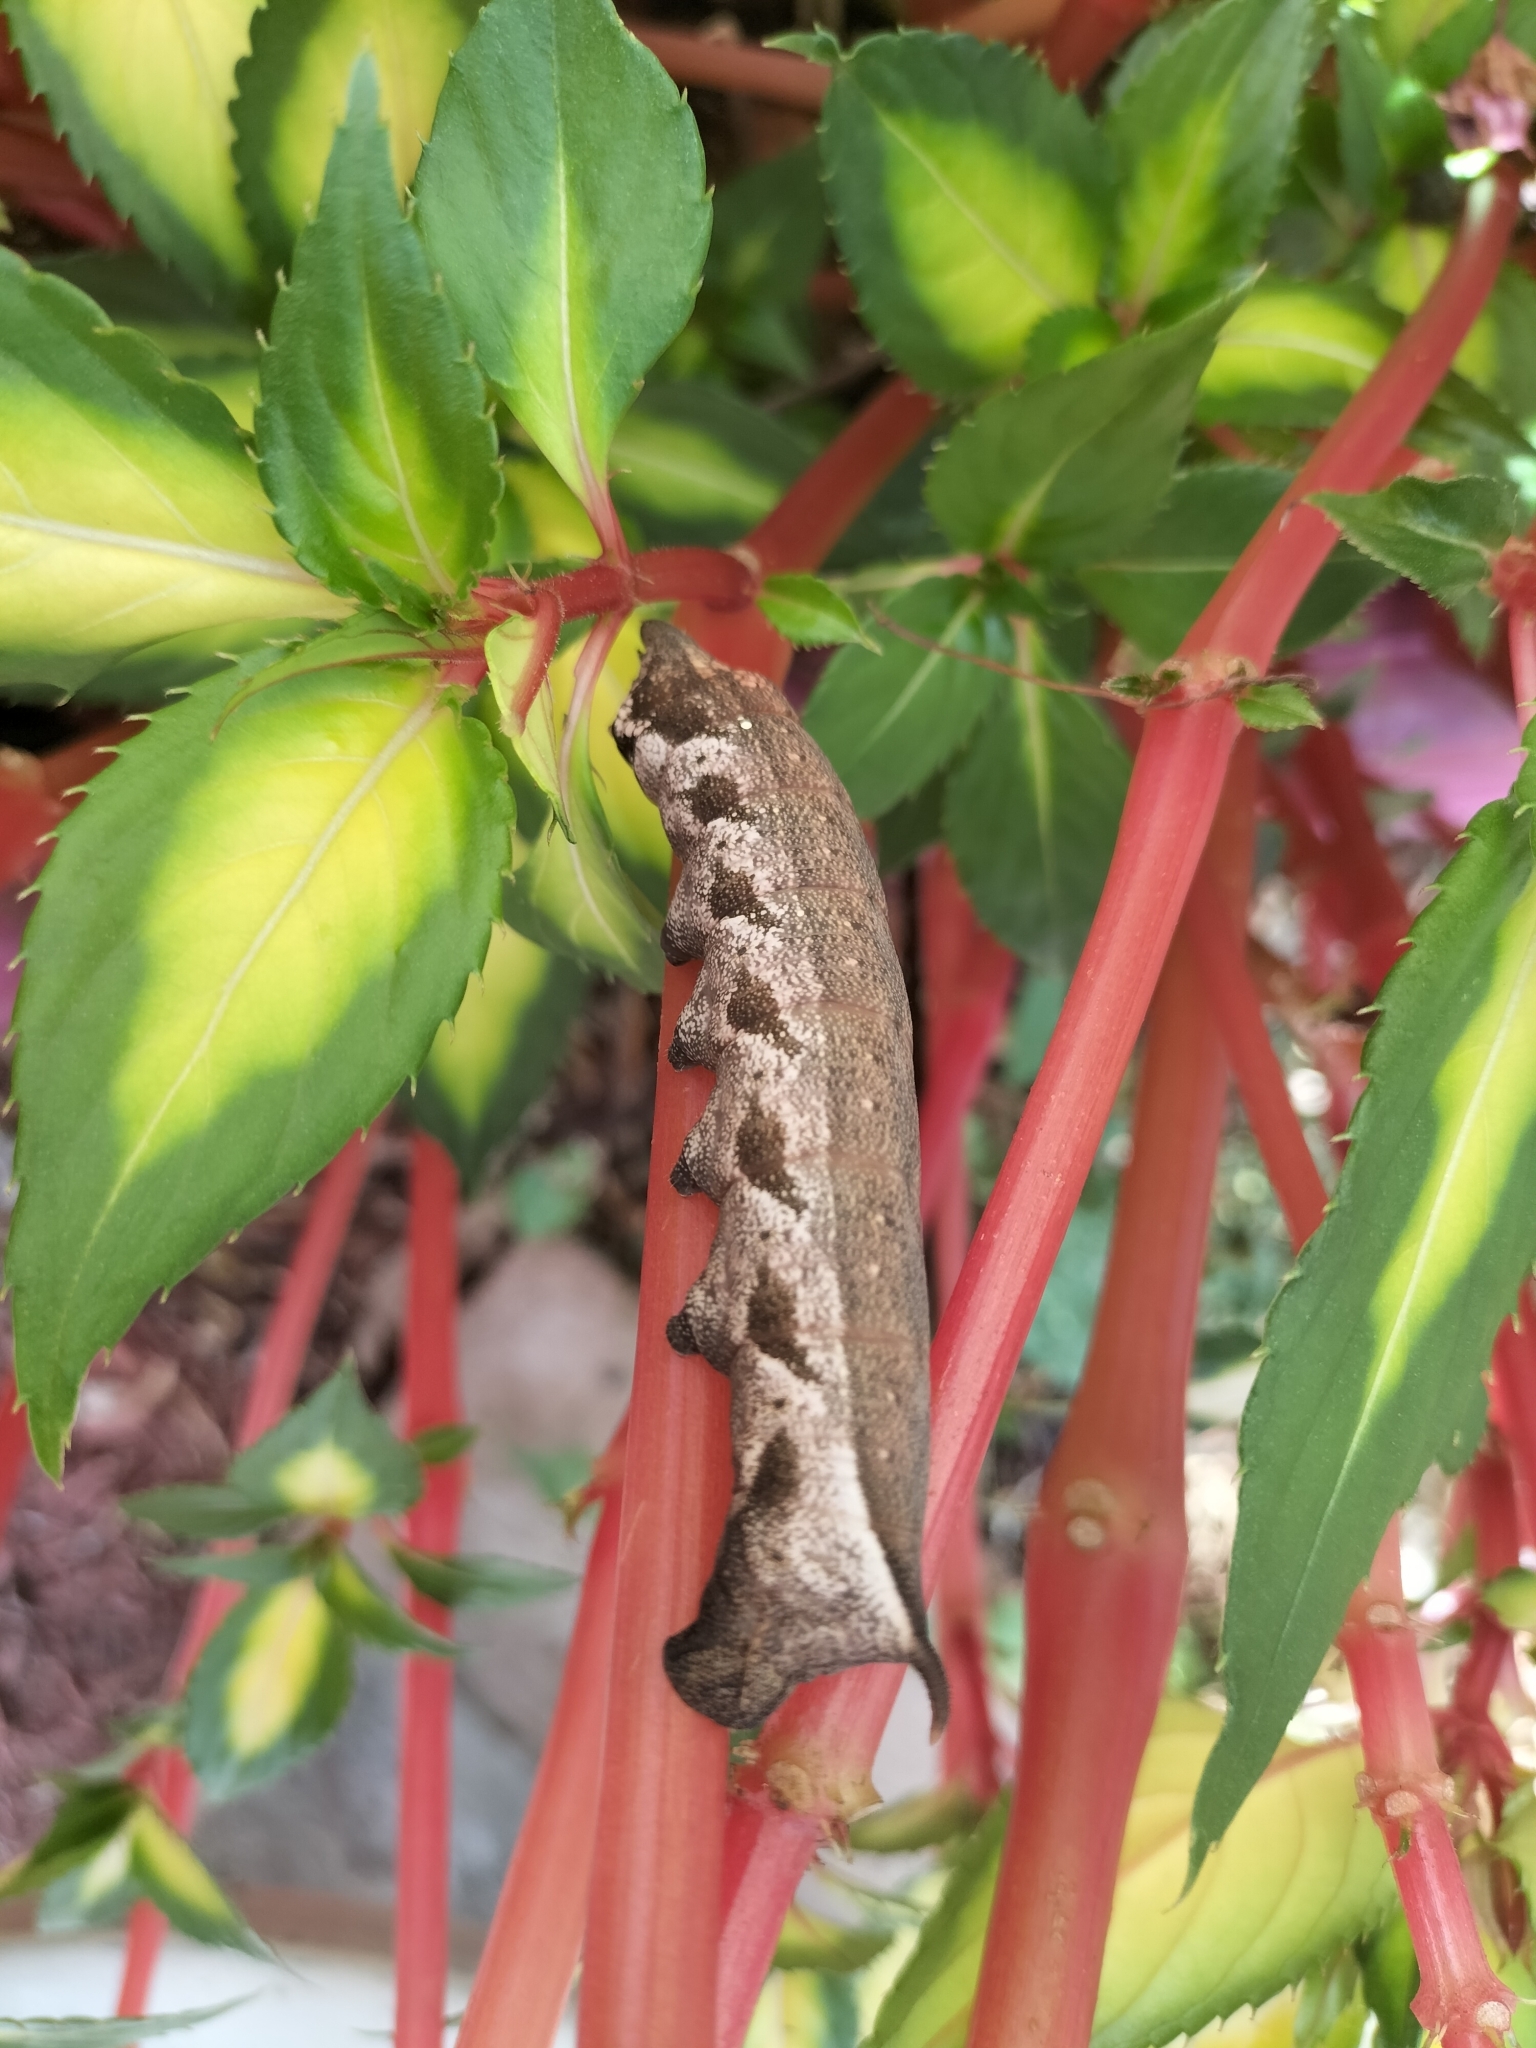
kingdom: Animalia
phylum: Arthropoda
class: Insecta
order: Lepidoptera
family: Sphingidae
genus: Theretra
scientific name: Theretra latreillii
